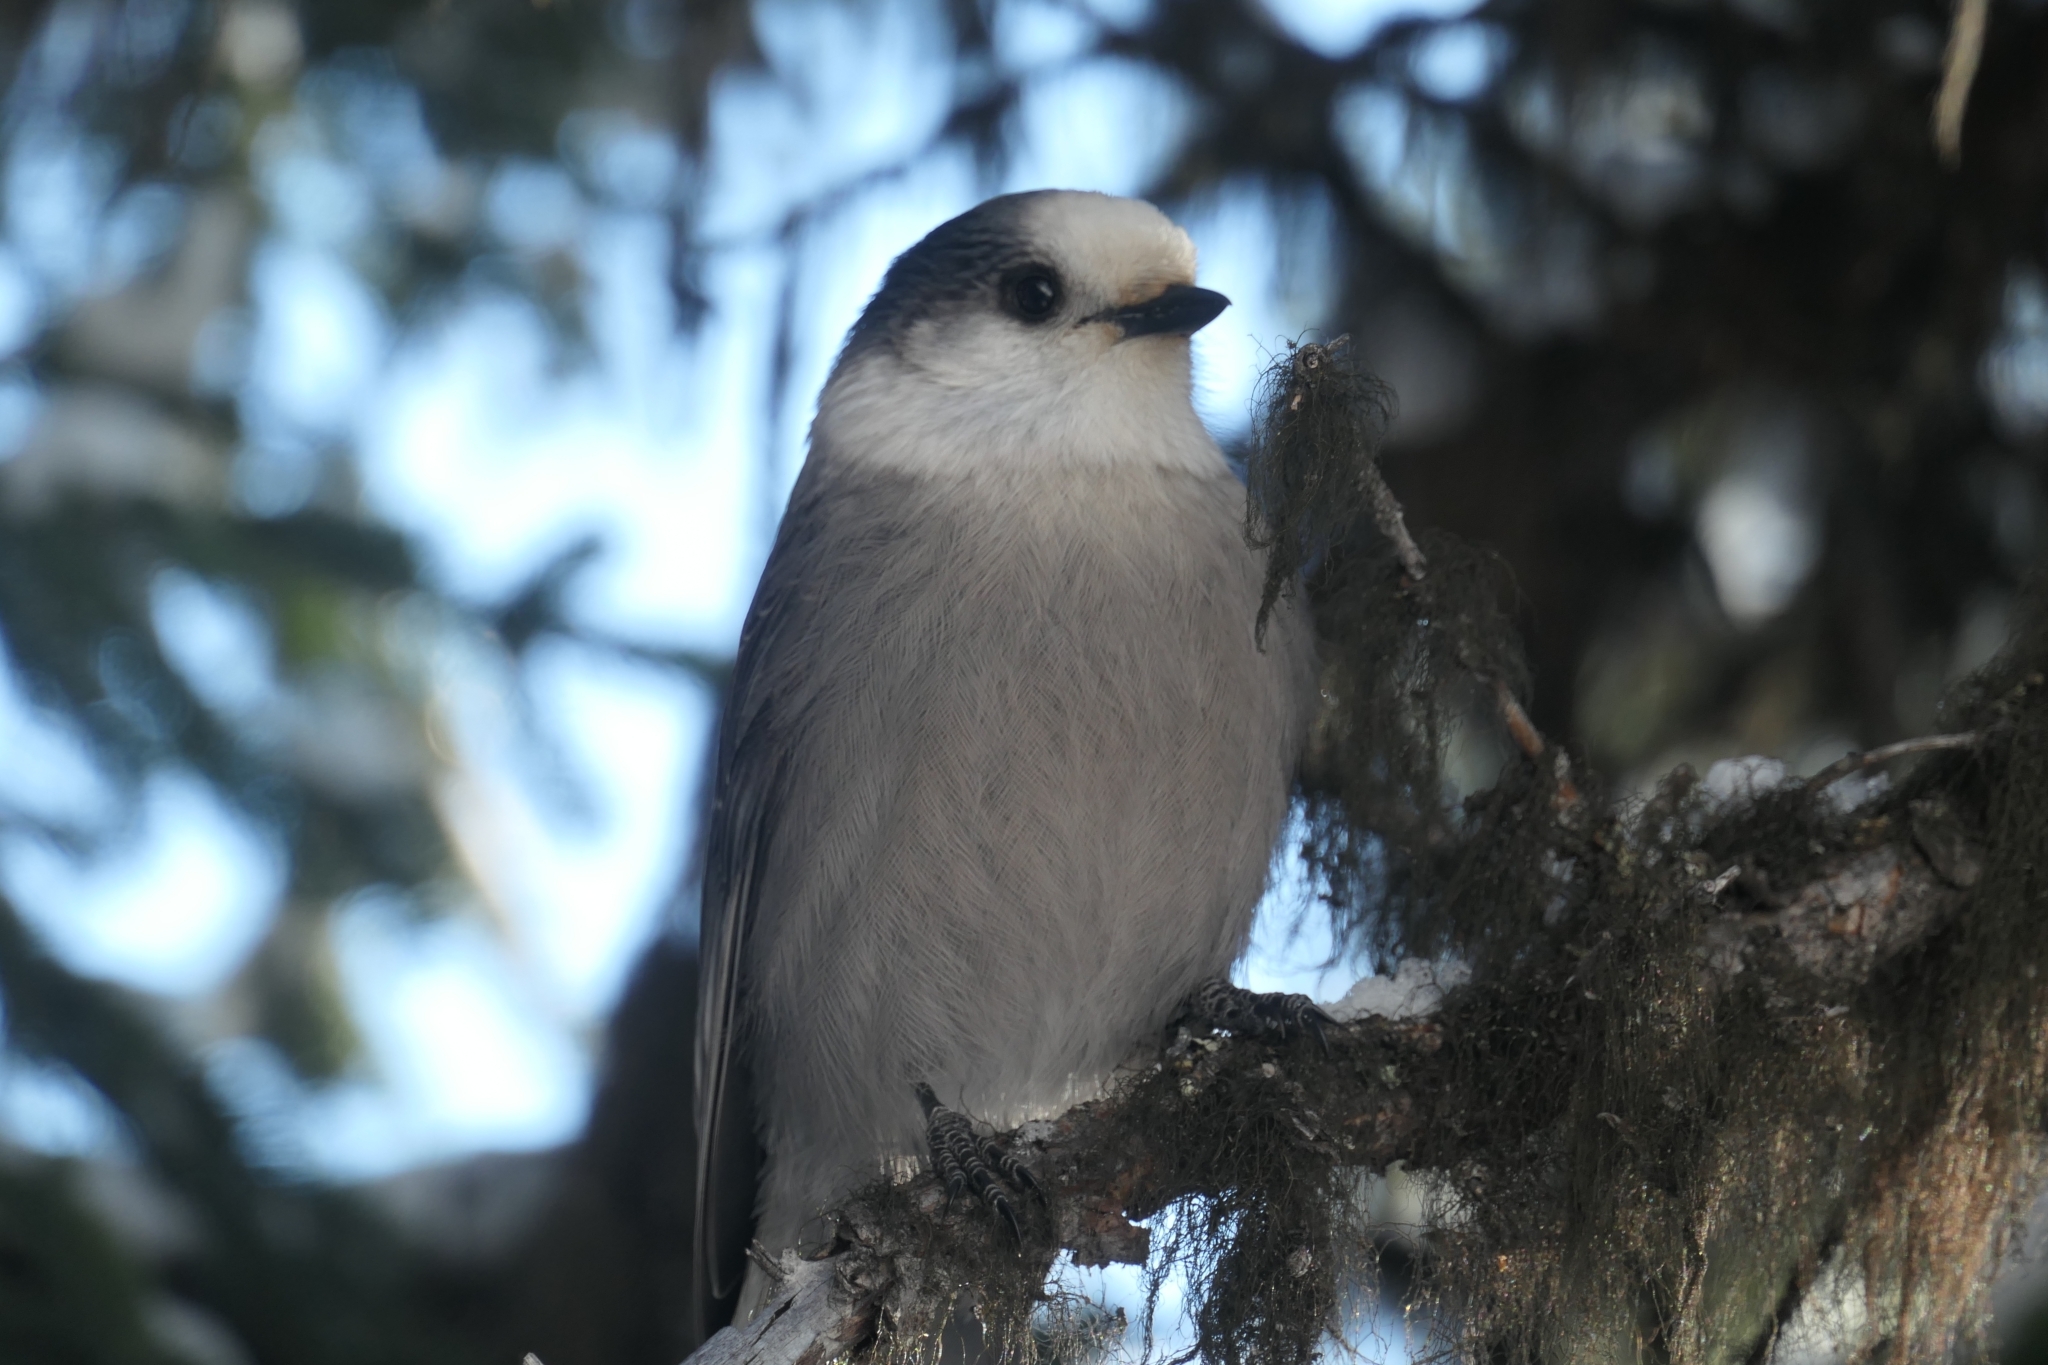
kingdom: Animalia
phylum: Chordata
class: Aves
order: Passeriformes
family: Corvidae
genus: Perisoreus
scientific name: Perisoreus canadensis
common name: Gray jay
